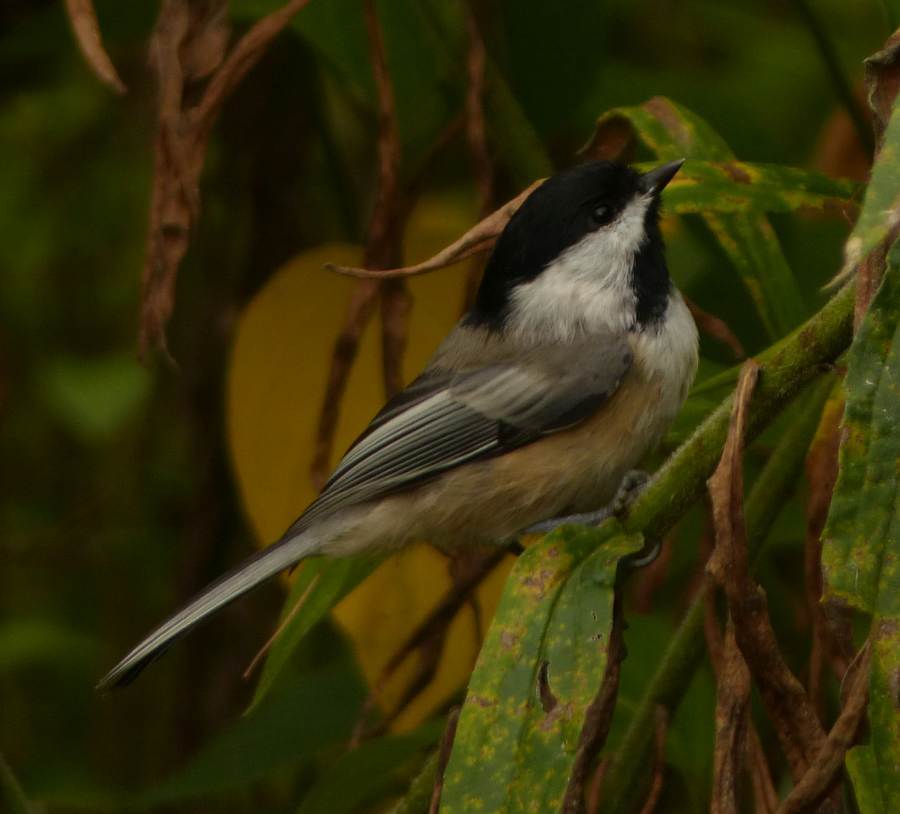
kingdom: Animalia
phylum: Chordata
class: Aves
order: Passeriformes
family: Paridae
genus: Poecile
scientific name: Poecile atricapillus
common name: Black-capped chickadee
